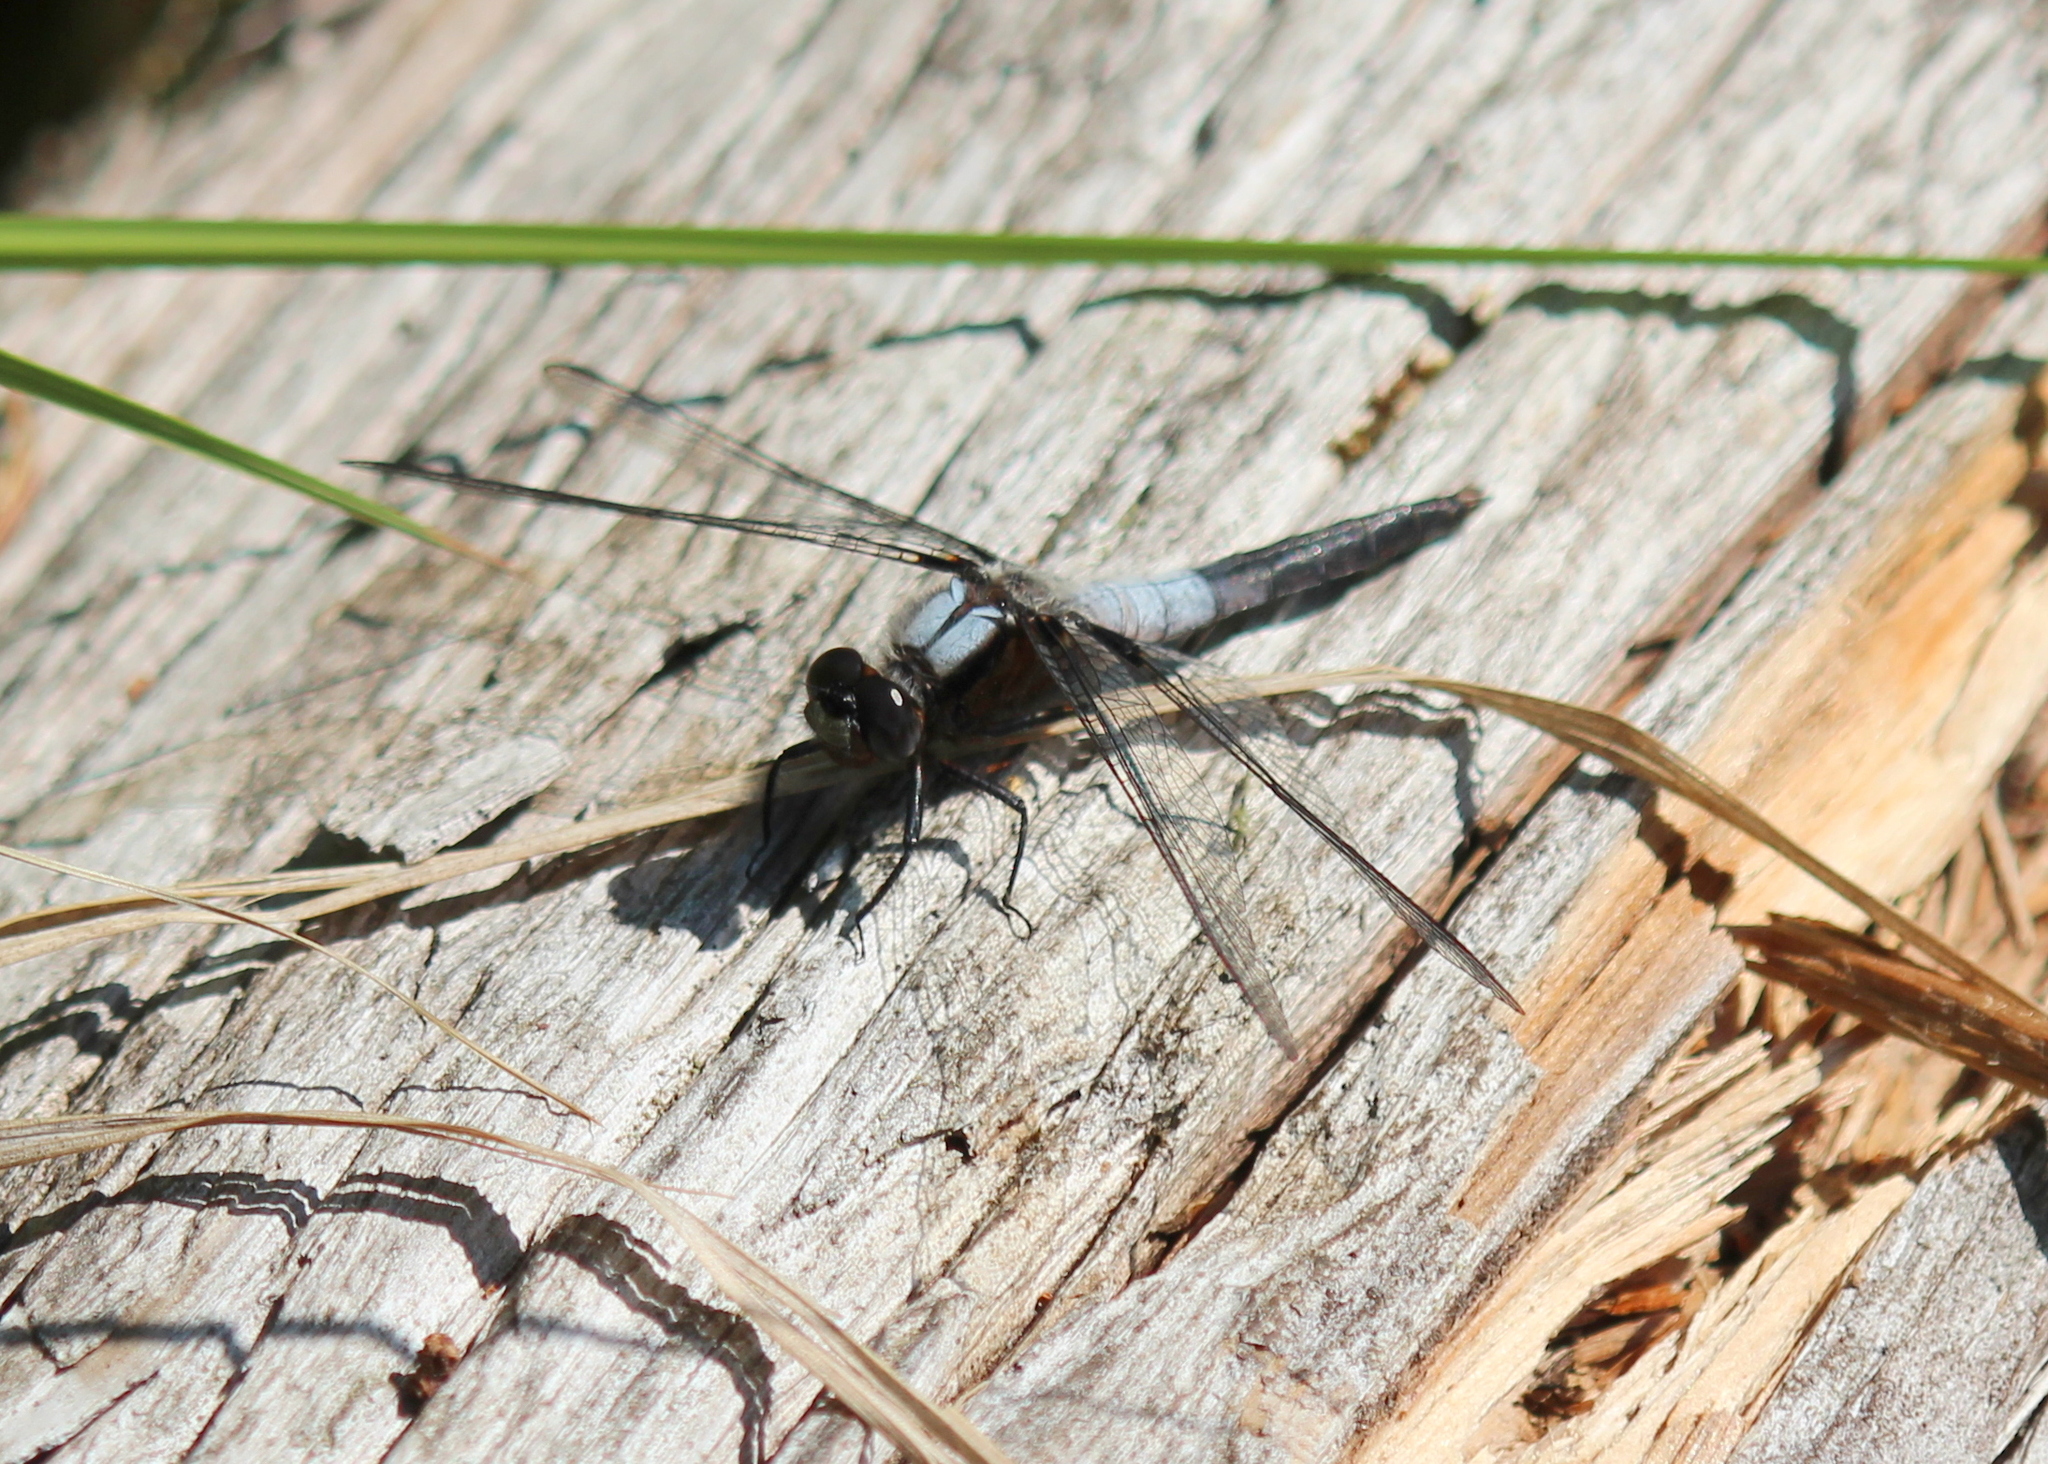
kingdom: Animalia
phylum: Arthropoda
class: Insecta
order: Odonata
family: Libellulidae
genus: Ladona
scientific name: Ladona julia
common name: Chalk-fronted corporal
